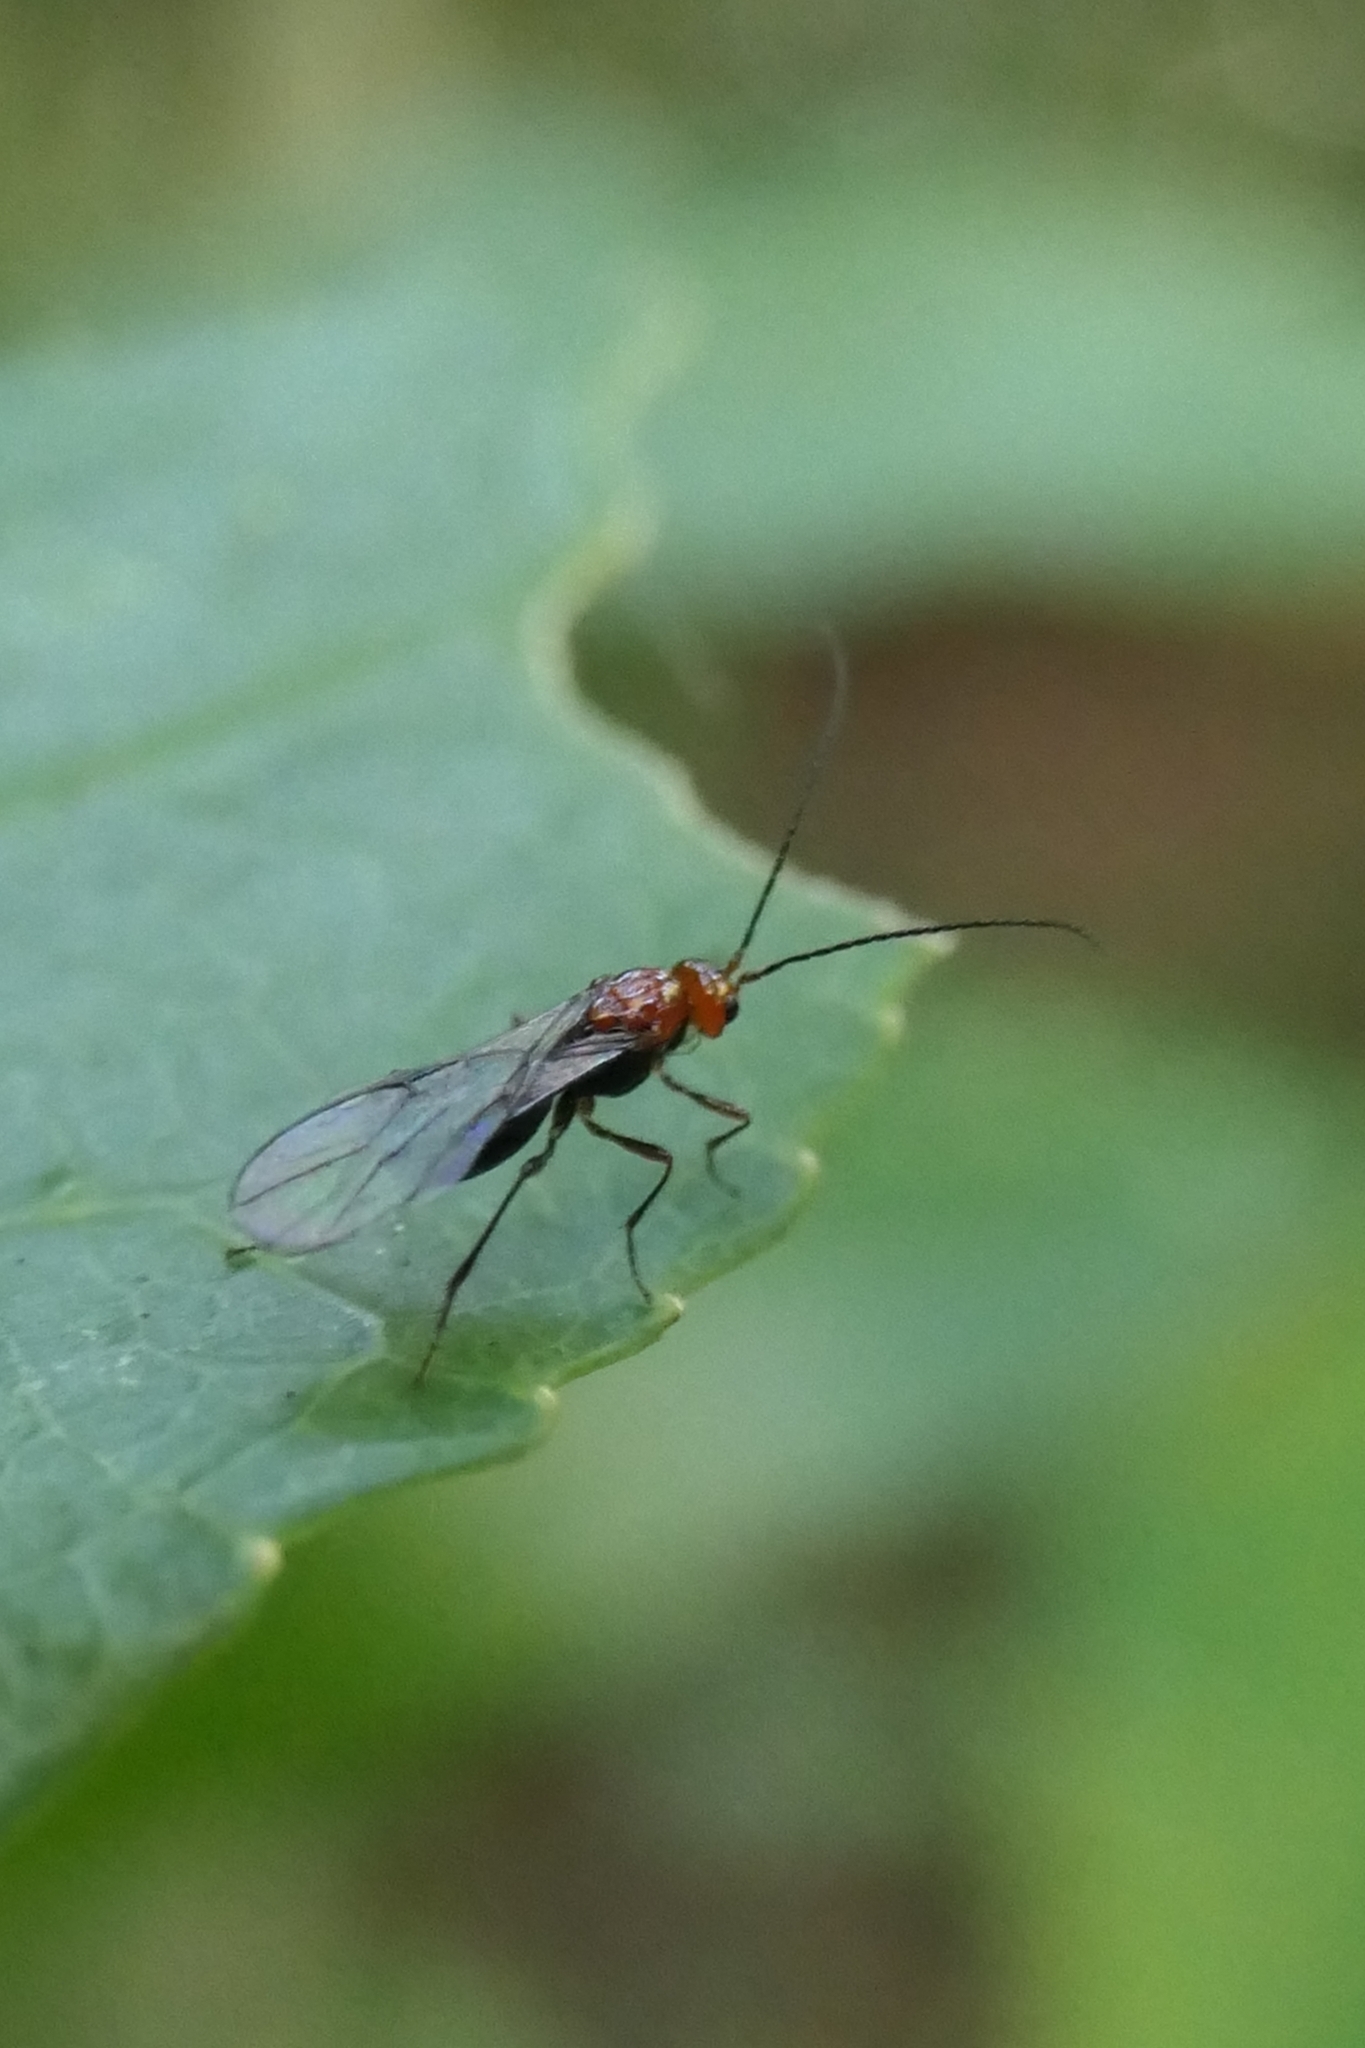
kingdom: Animalia
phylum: Arthropoda
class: Insecta
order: Hymenoptera
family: Braconidae
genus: Asobara
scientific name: Asobara antipoda
